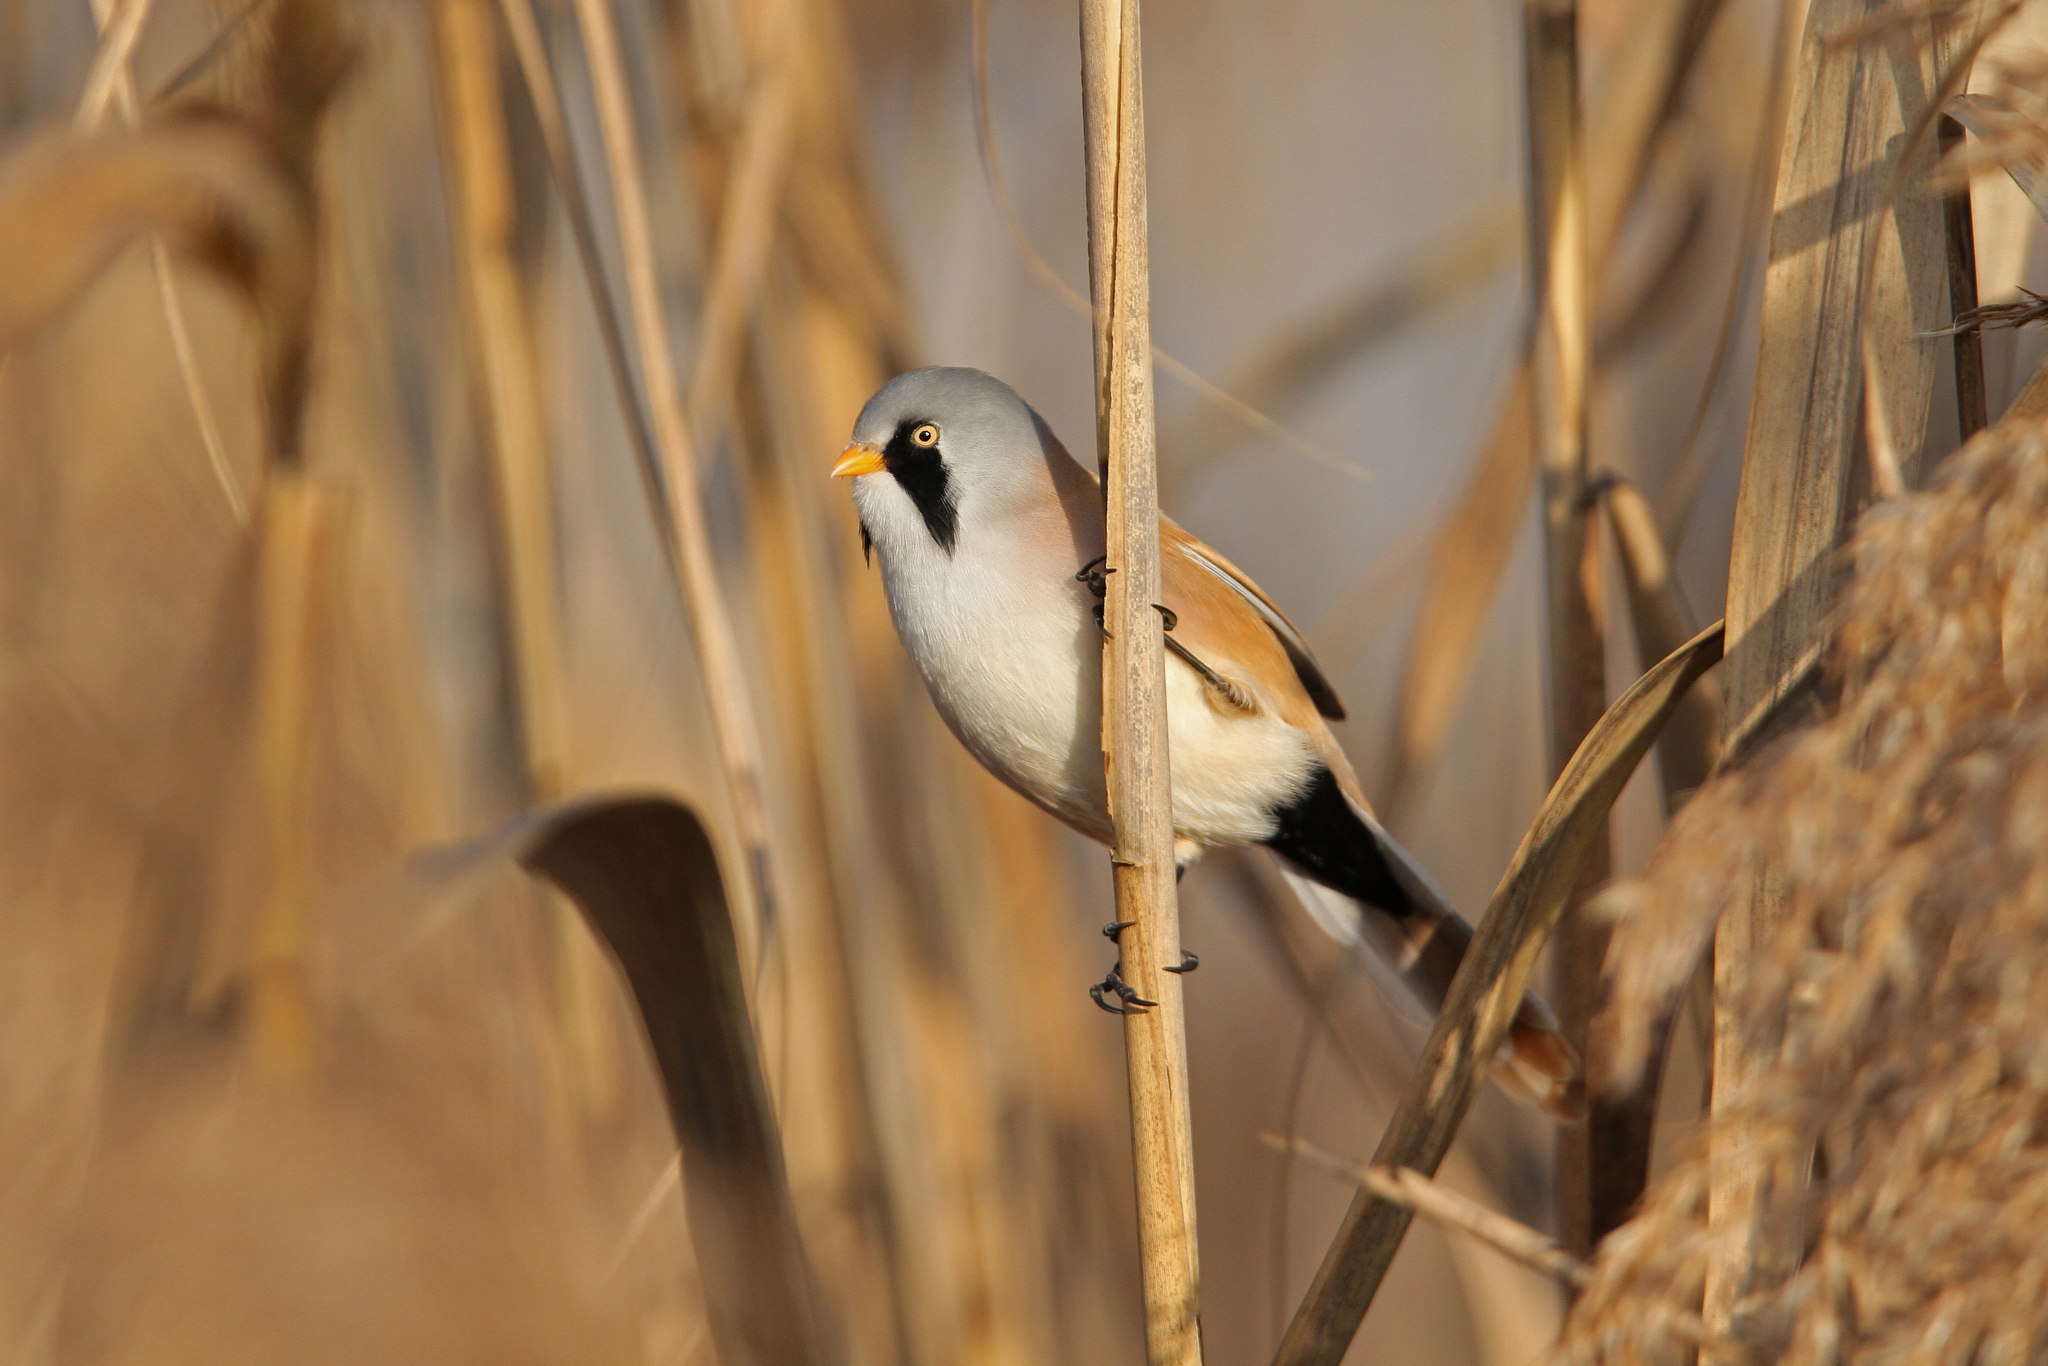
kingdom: Animalia
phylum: Chordata
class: Aves
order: Passeriformes
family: Panuridae
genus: Panurus
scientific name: Panurus biarmicus
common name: Bearded reedling
